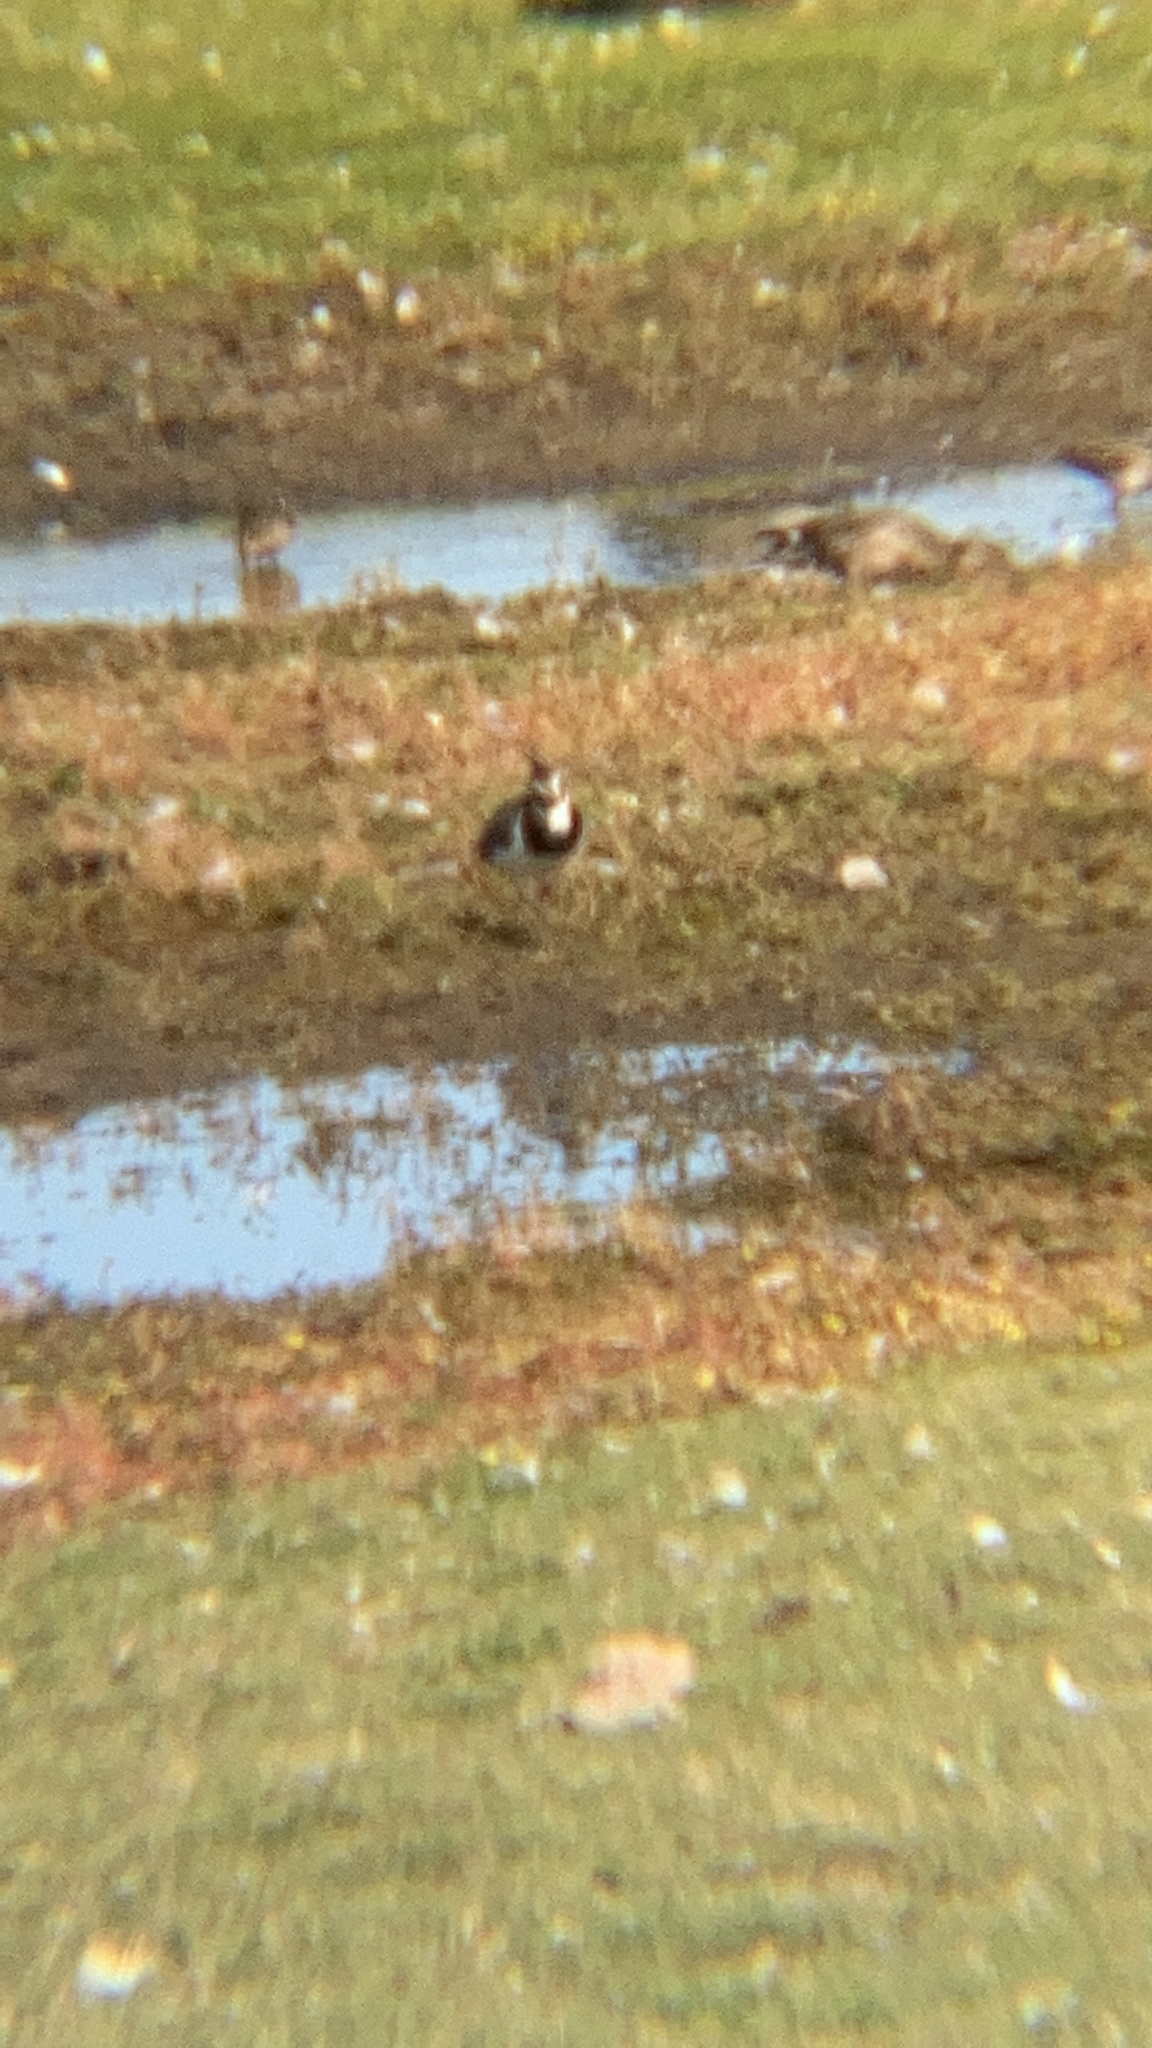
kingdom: Animalia
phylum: Chordata
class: Aves
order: Charadriiformes
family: Charadriidae
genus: Vanellus
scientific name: Vanellus vanellus
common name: Northern lapwing
